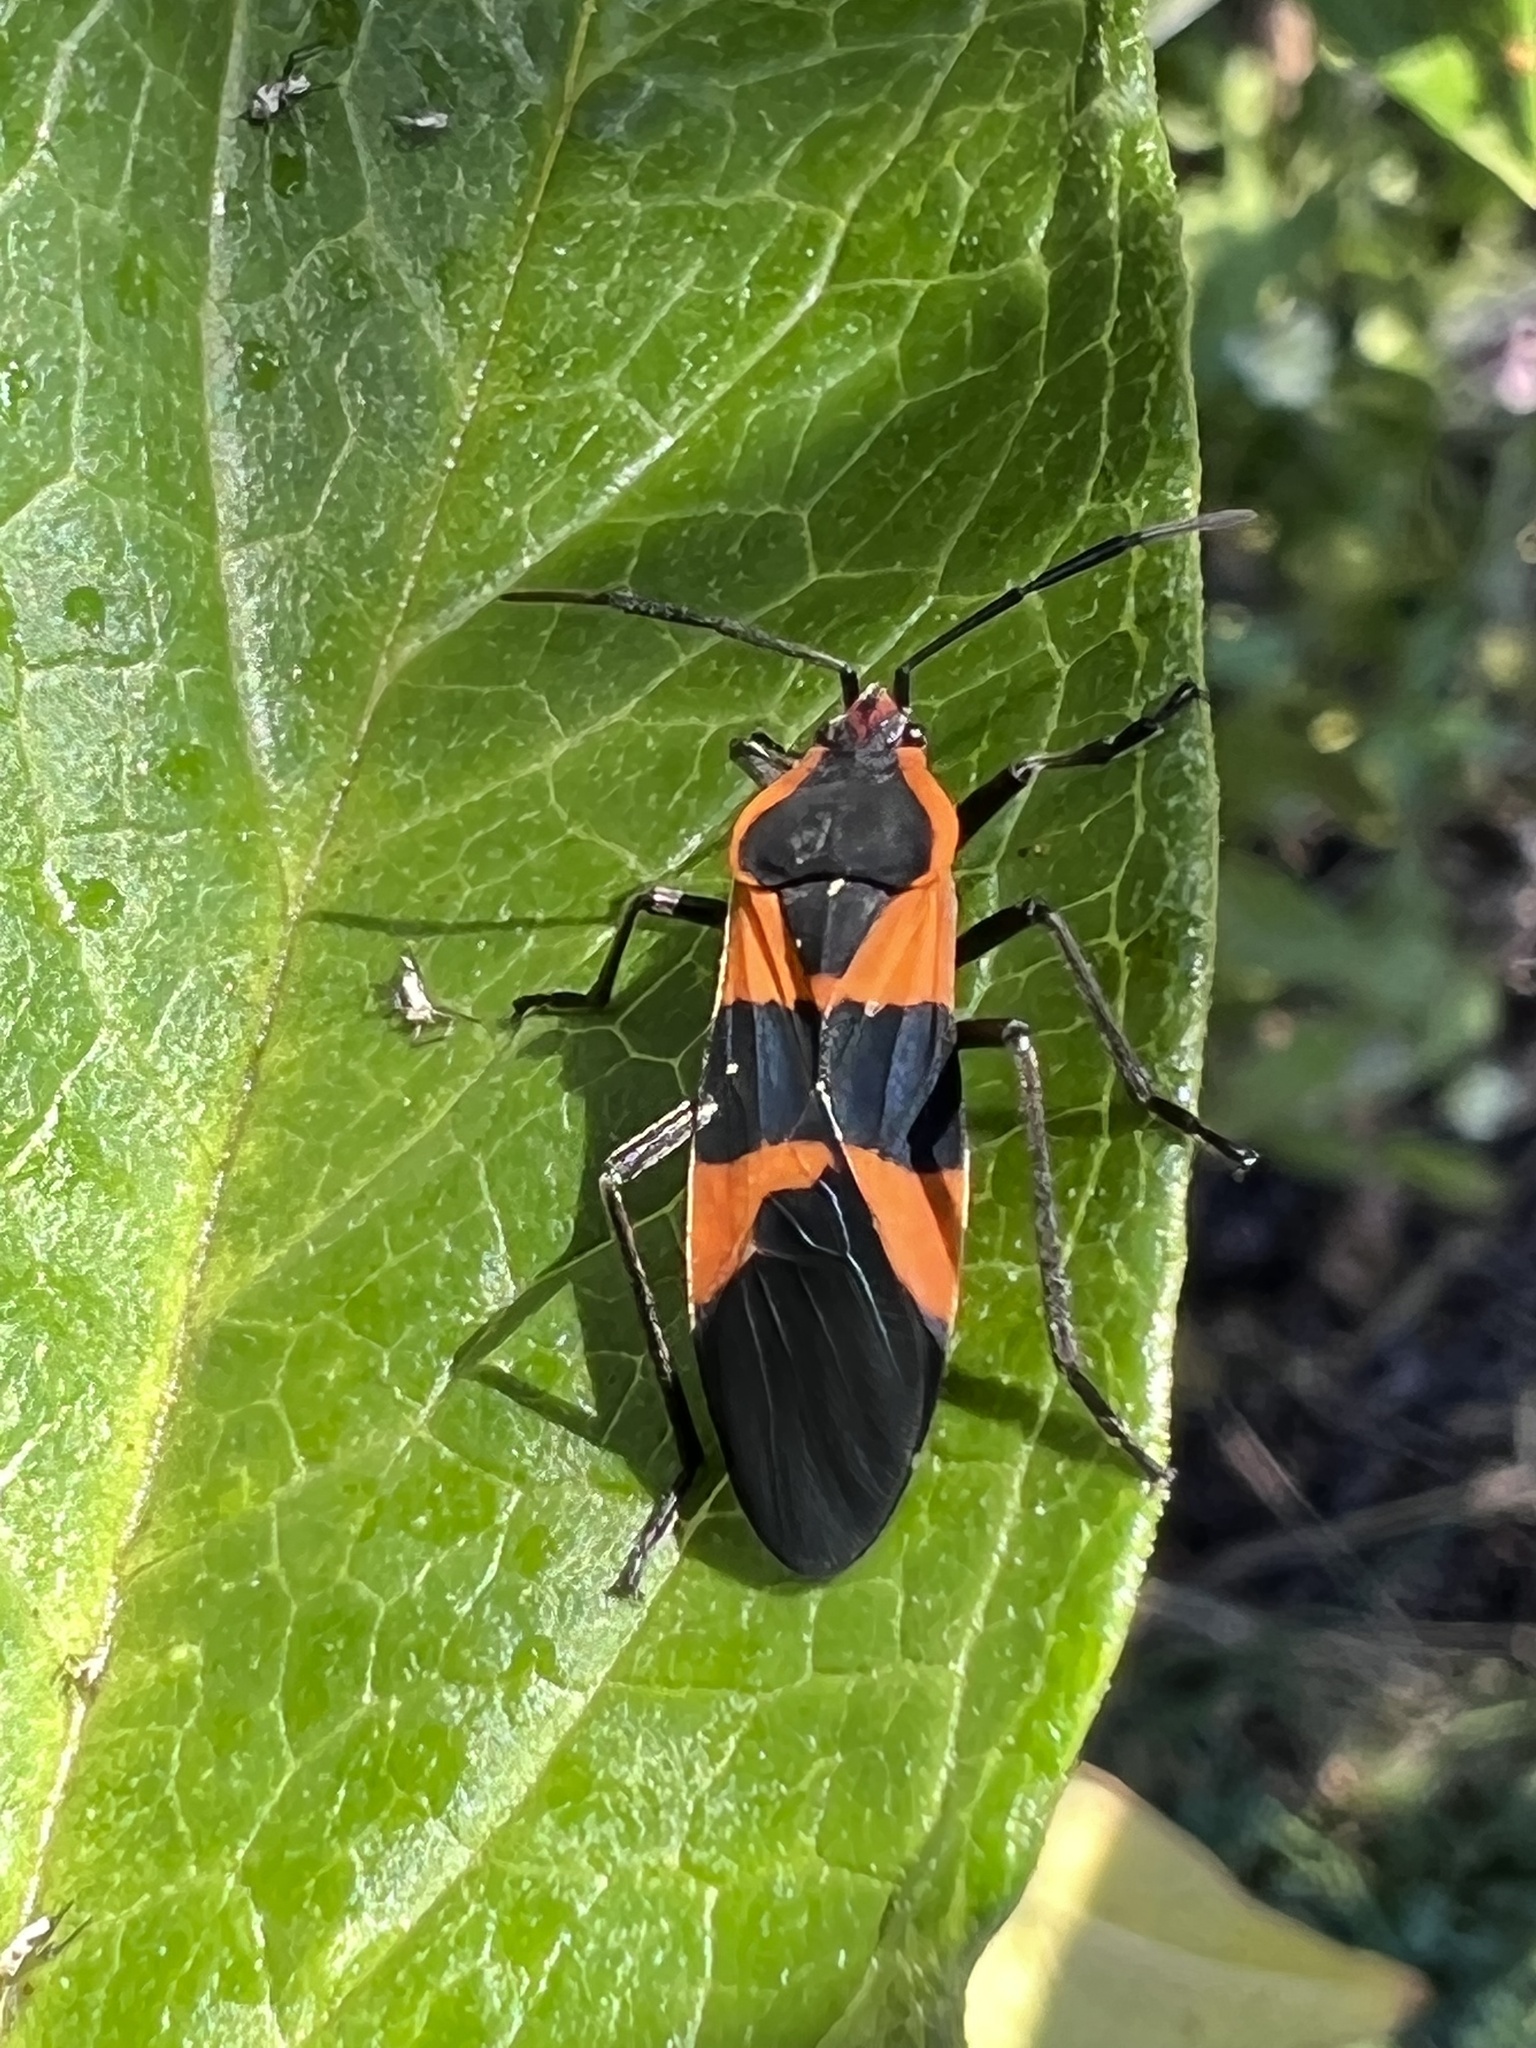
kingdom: Animalia
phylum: Arthropoda
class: Insecta
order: Hemiptera
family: Lygaeidae
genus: Oncopeltus
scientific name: Oncopeltus fasciatus
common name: Large milkweed bug
